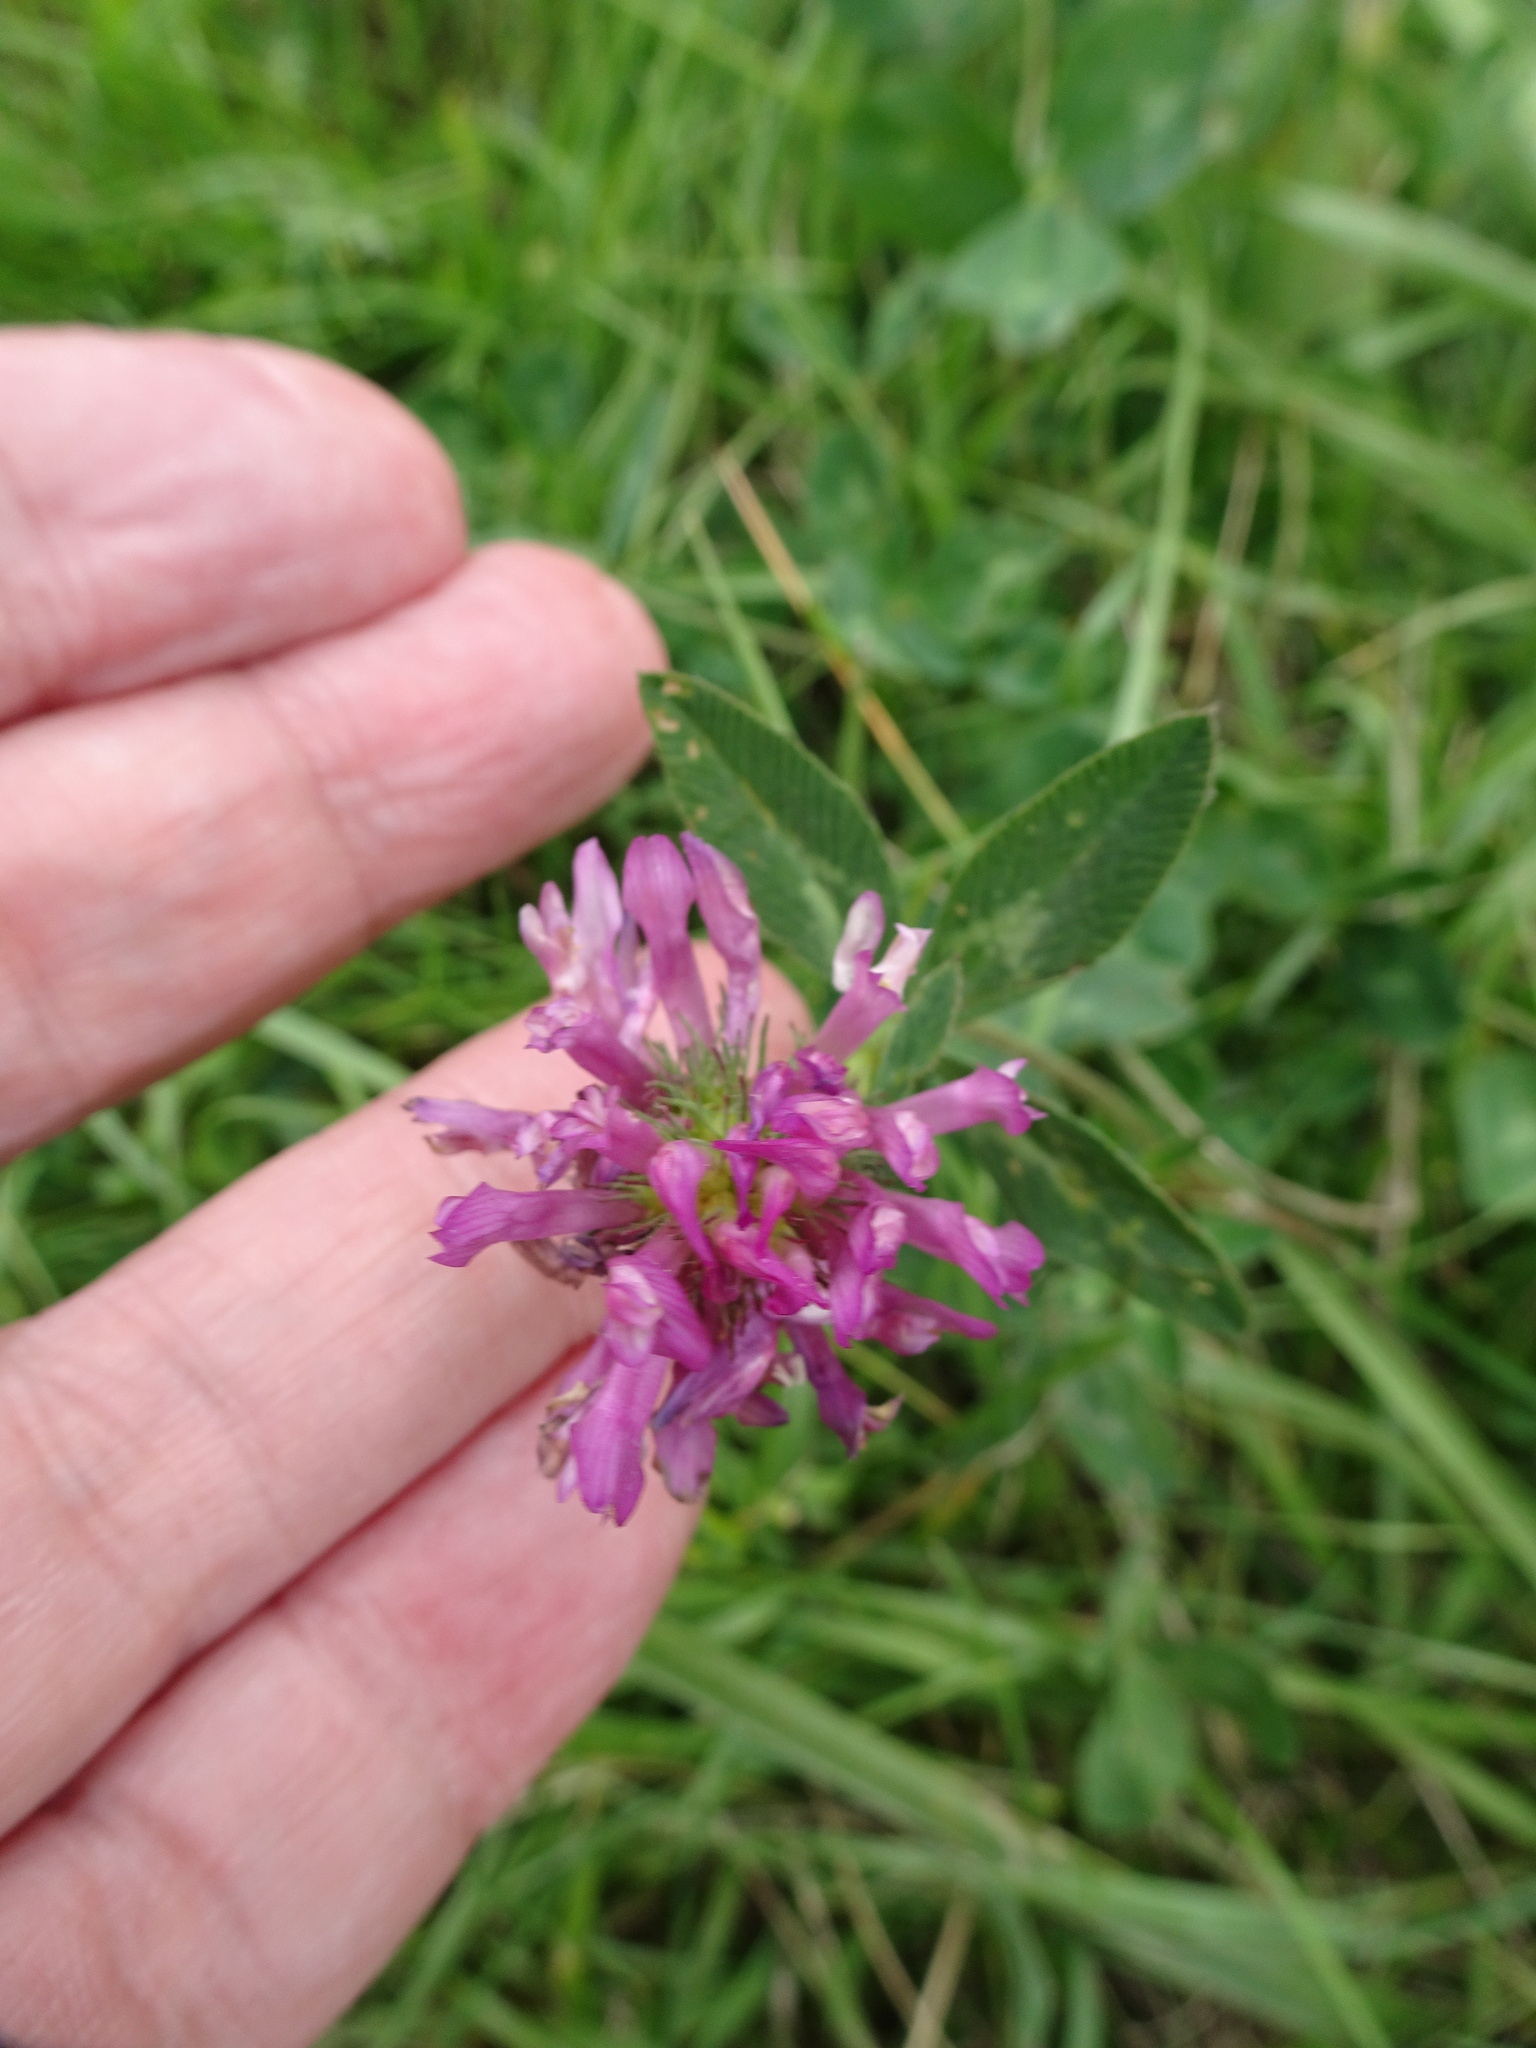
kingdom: Plantae
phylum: Tracheophyta
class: Magnoliopsida
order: Fabales
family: Fabaceae
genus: Trifolium
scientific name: Trifolium pratense
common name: Red clover
